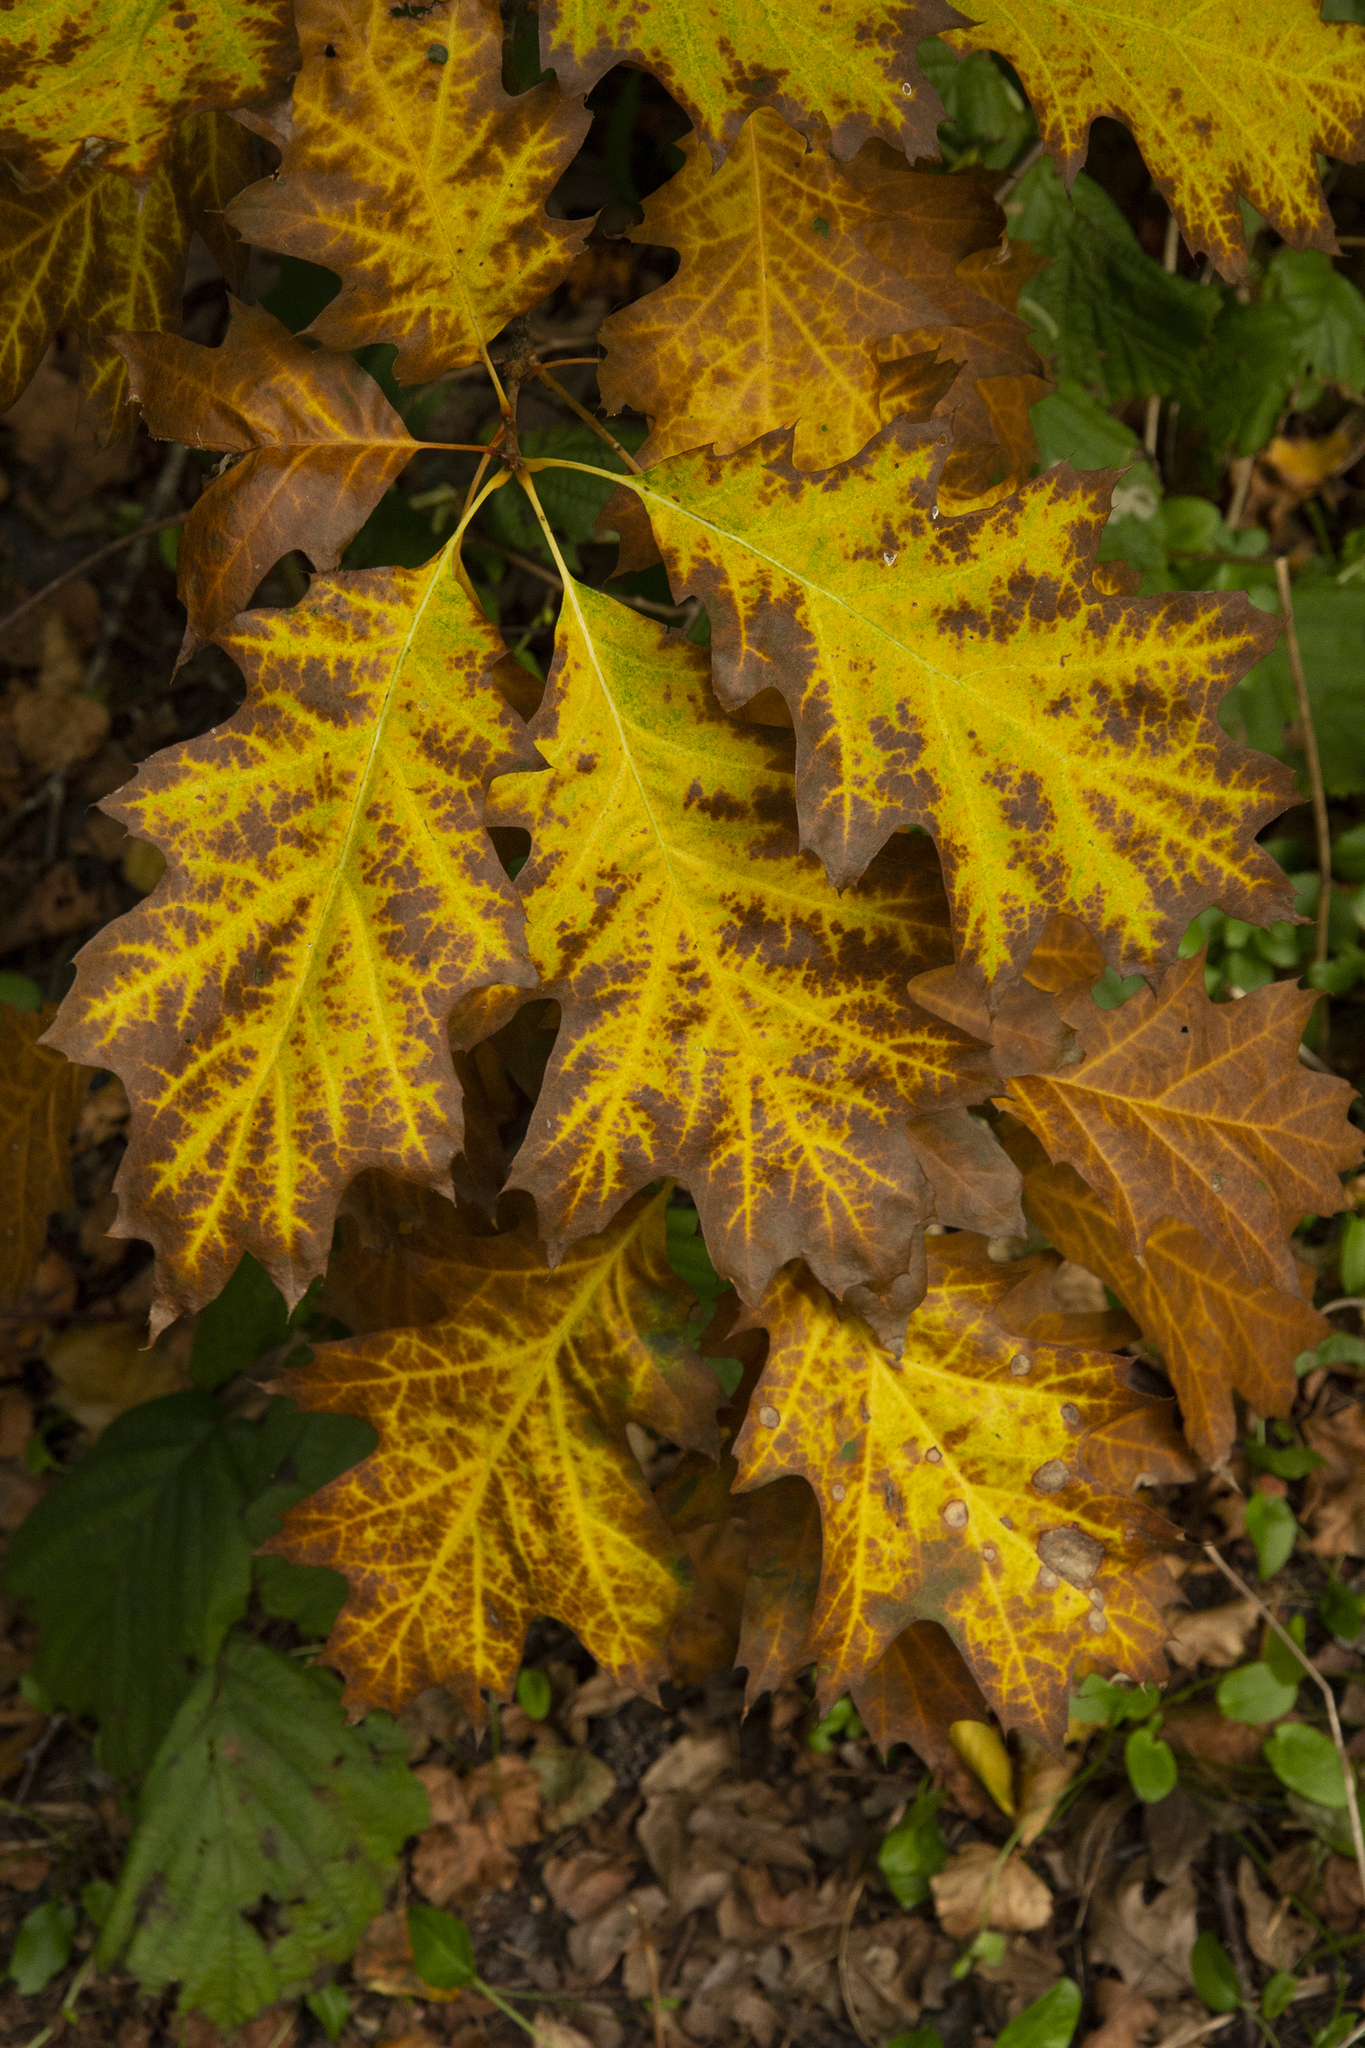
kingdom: Plantae
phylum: Tracheophyta
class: Magnoliopsida
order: Fagales
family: Fagaceae
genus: Quercus
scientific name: Quercus rubra
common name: Red oak
